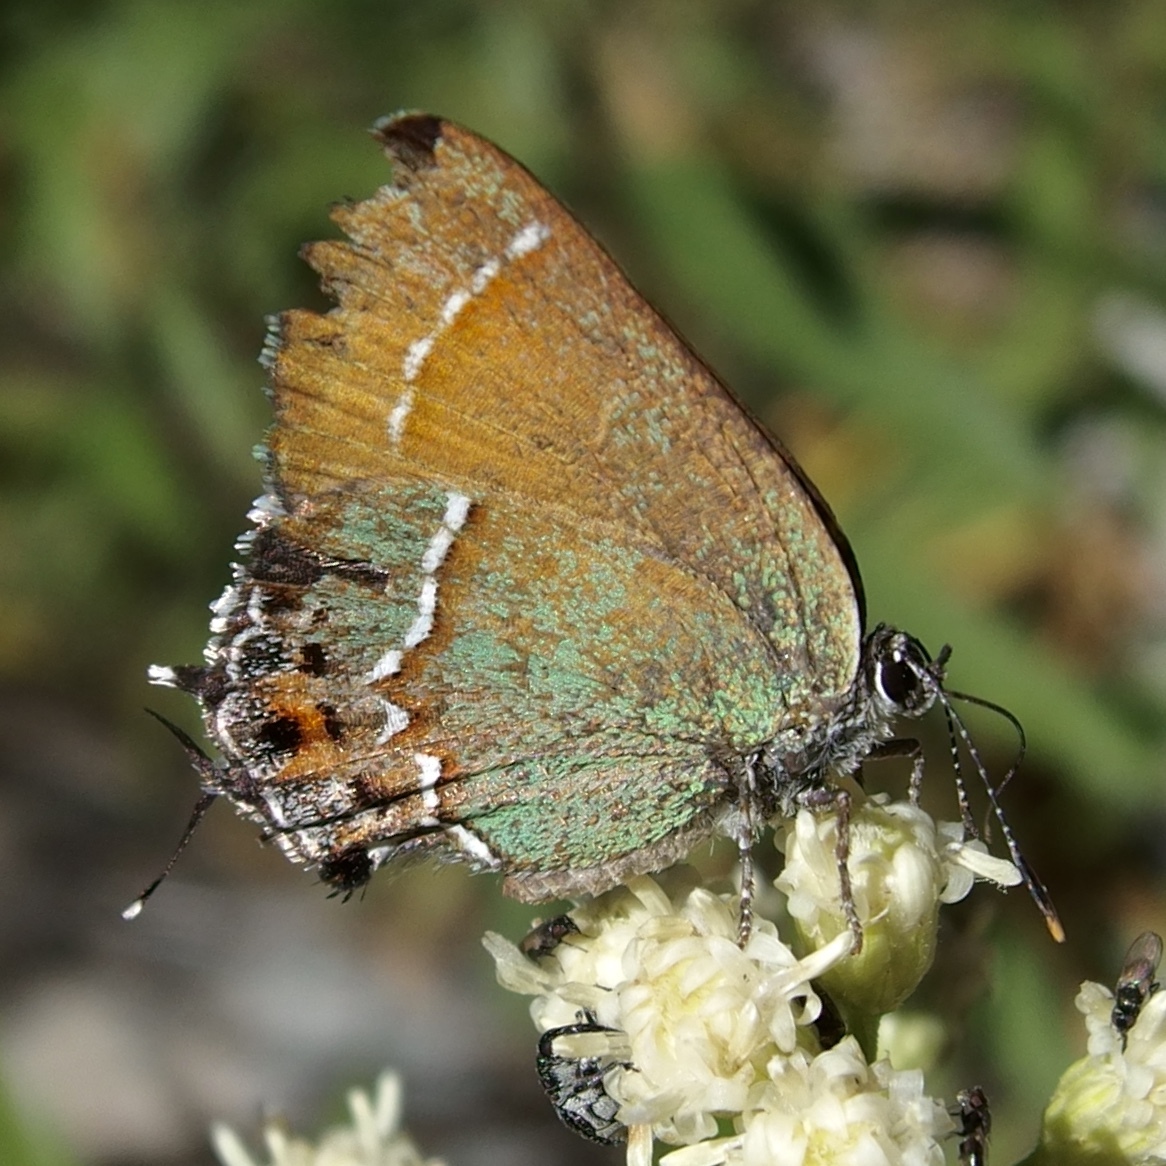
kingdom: Animalia
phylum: Arthropoda
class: Insecta
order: Lepidoptera
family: Lycaenidae
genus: Mitoura
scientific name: Mitoura gryneus
